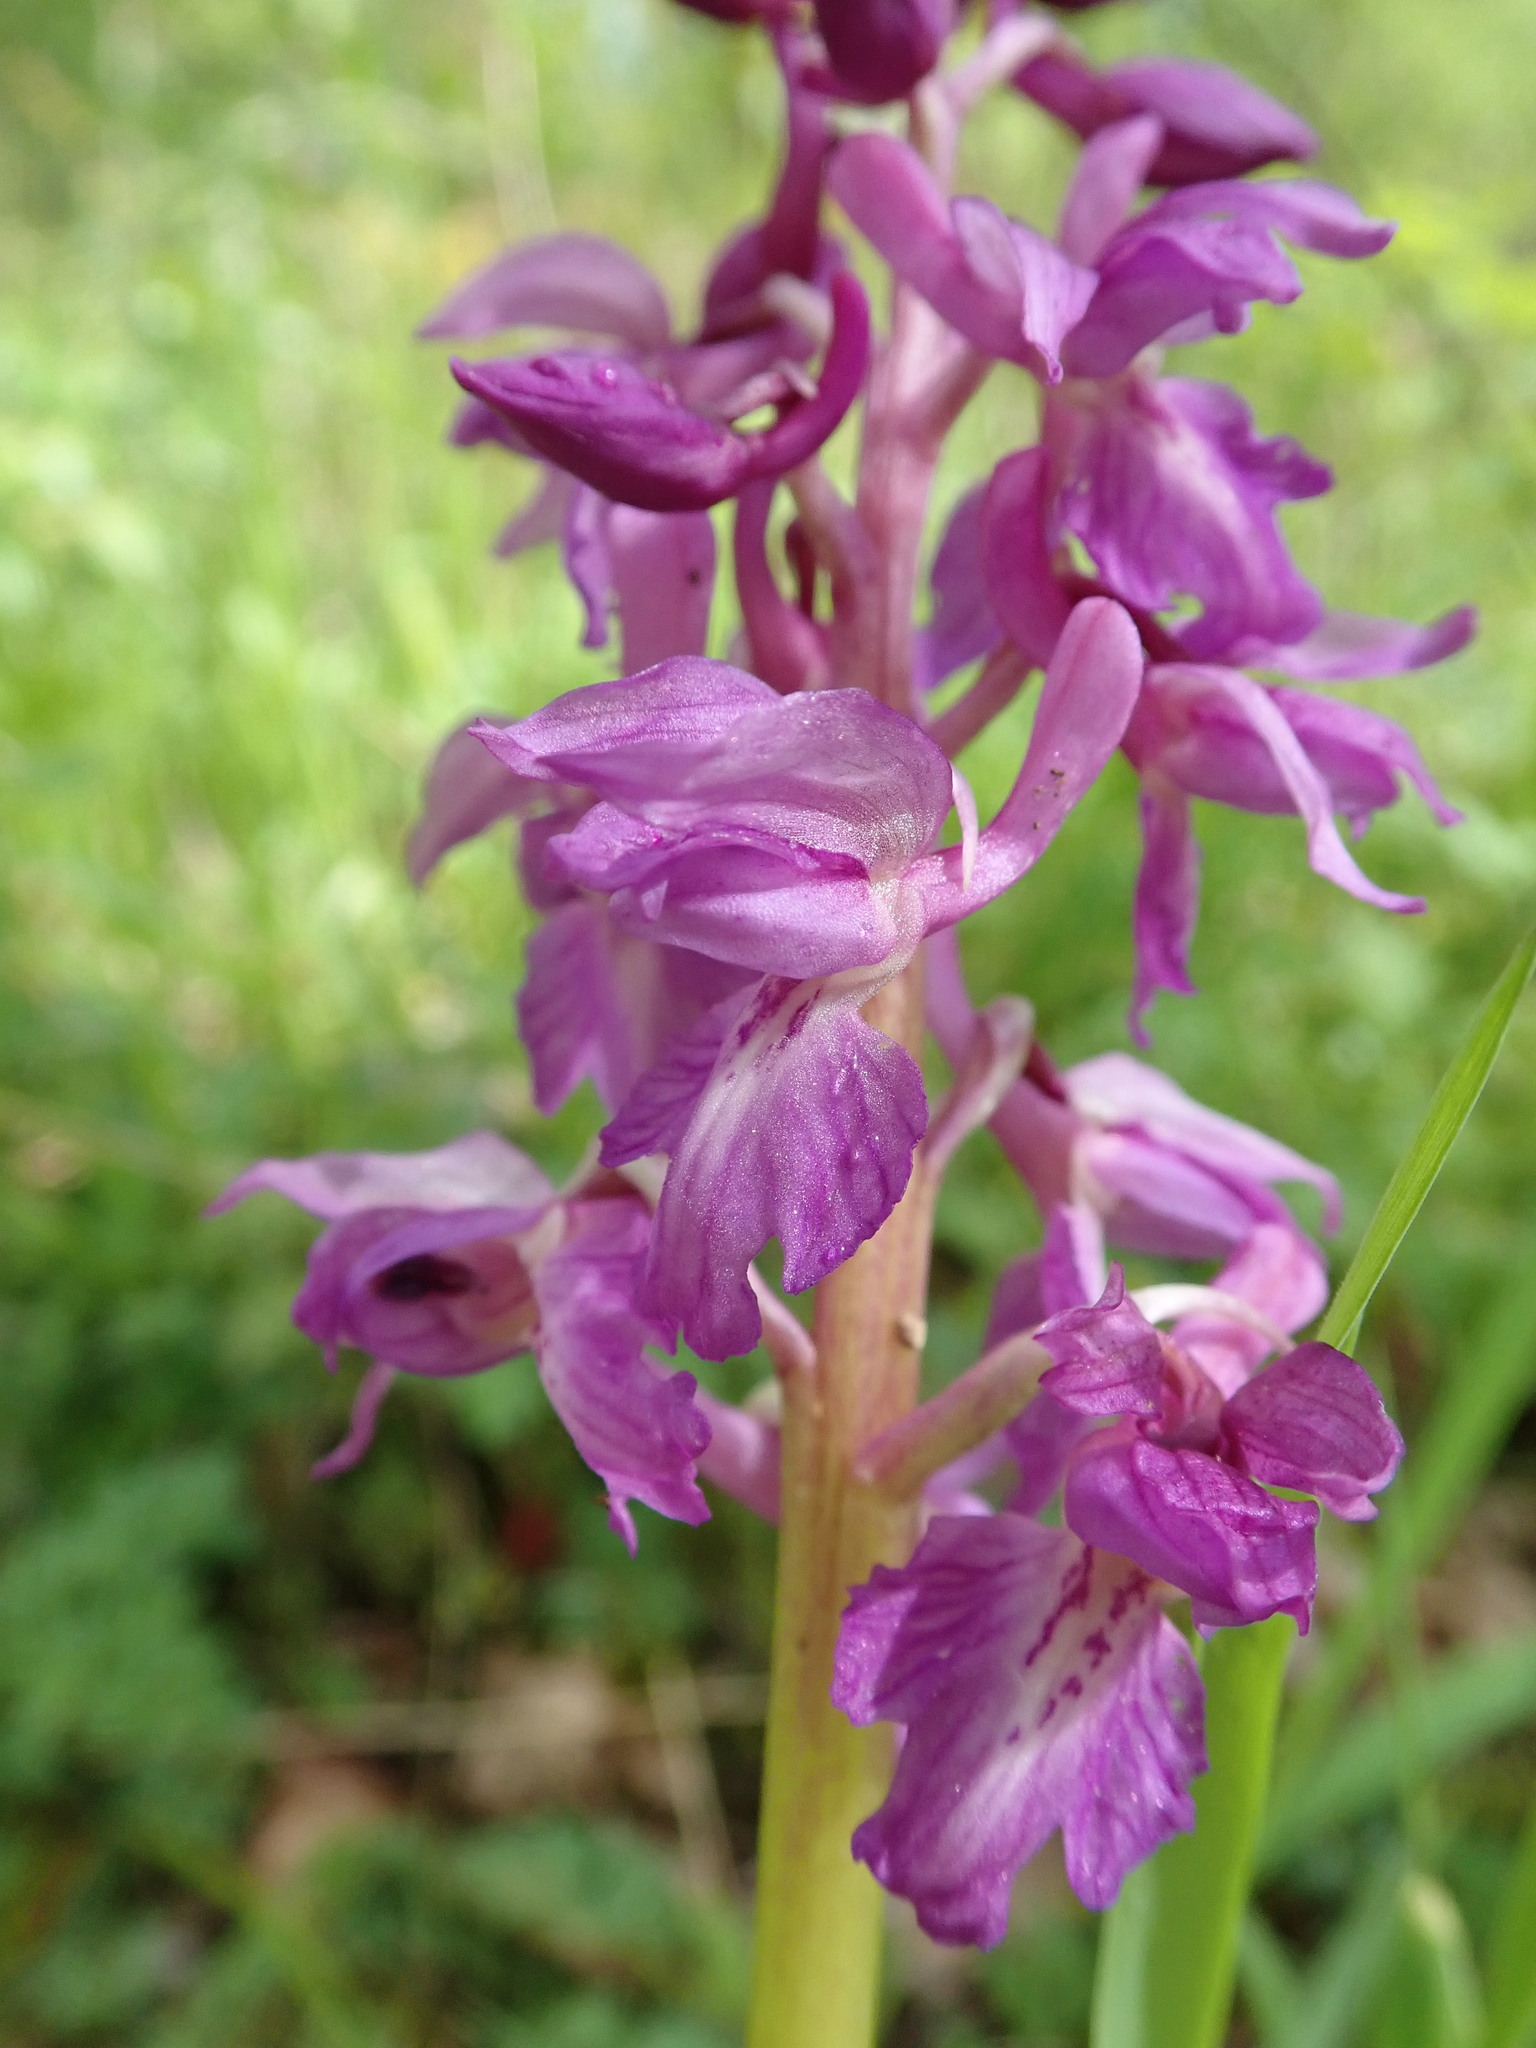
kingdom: Plantae
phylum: Tracheophyta
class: Liliopsida
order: Asparagales
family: Orchidaceae
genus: Orchis
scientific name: Orchis mascula
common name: Early-purple orchid
